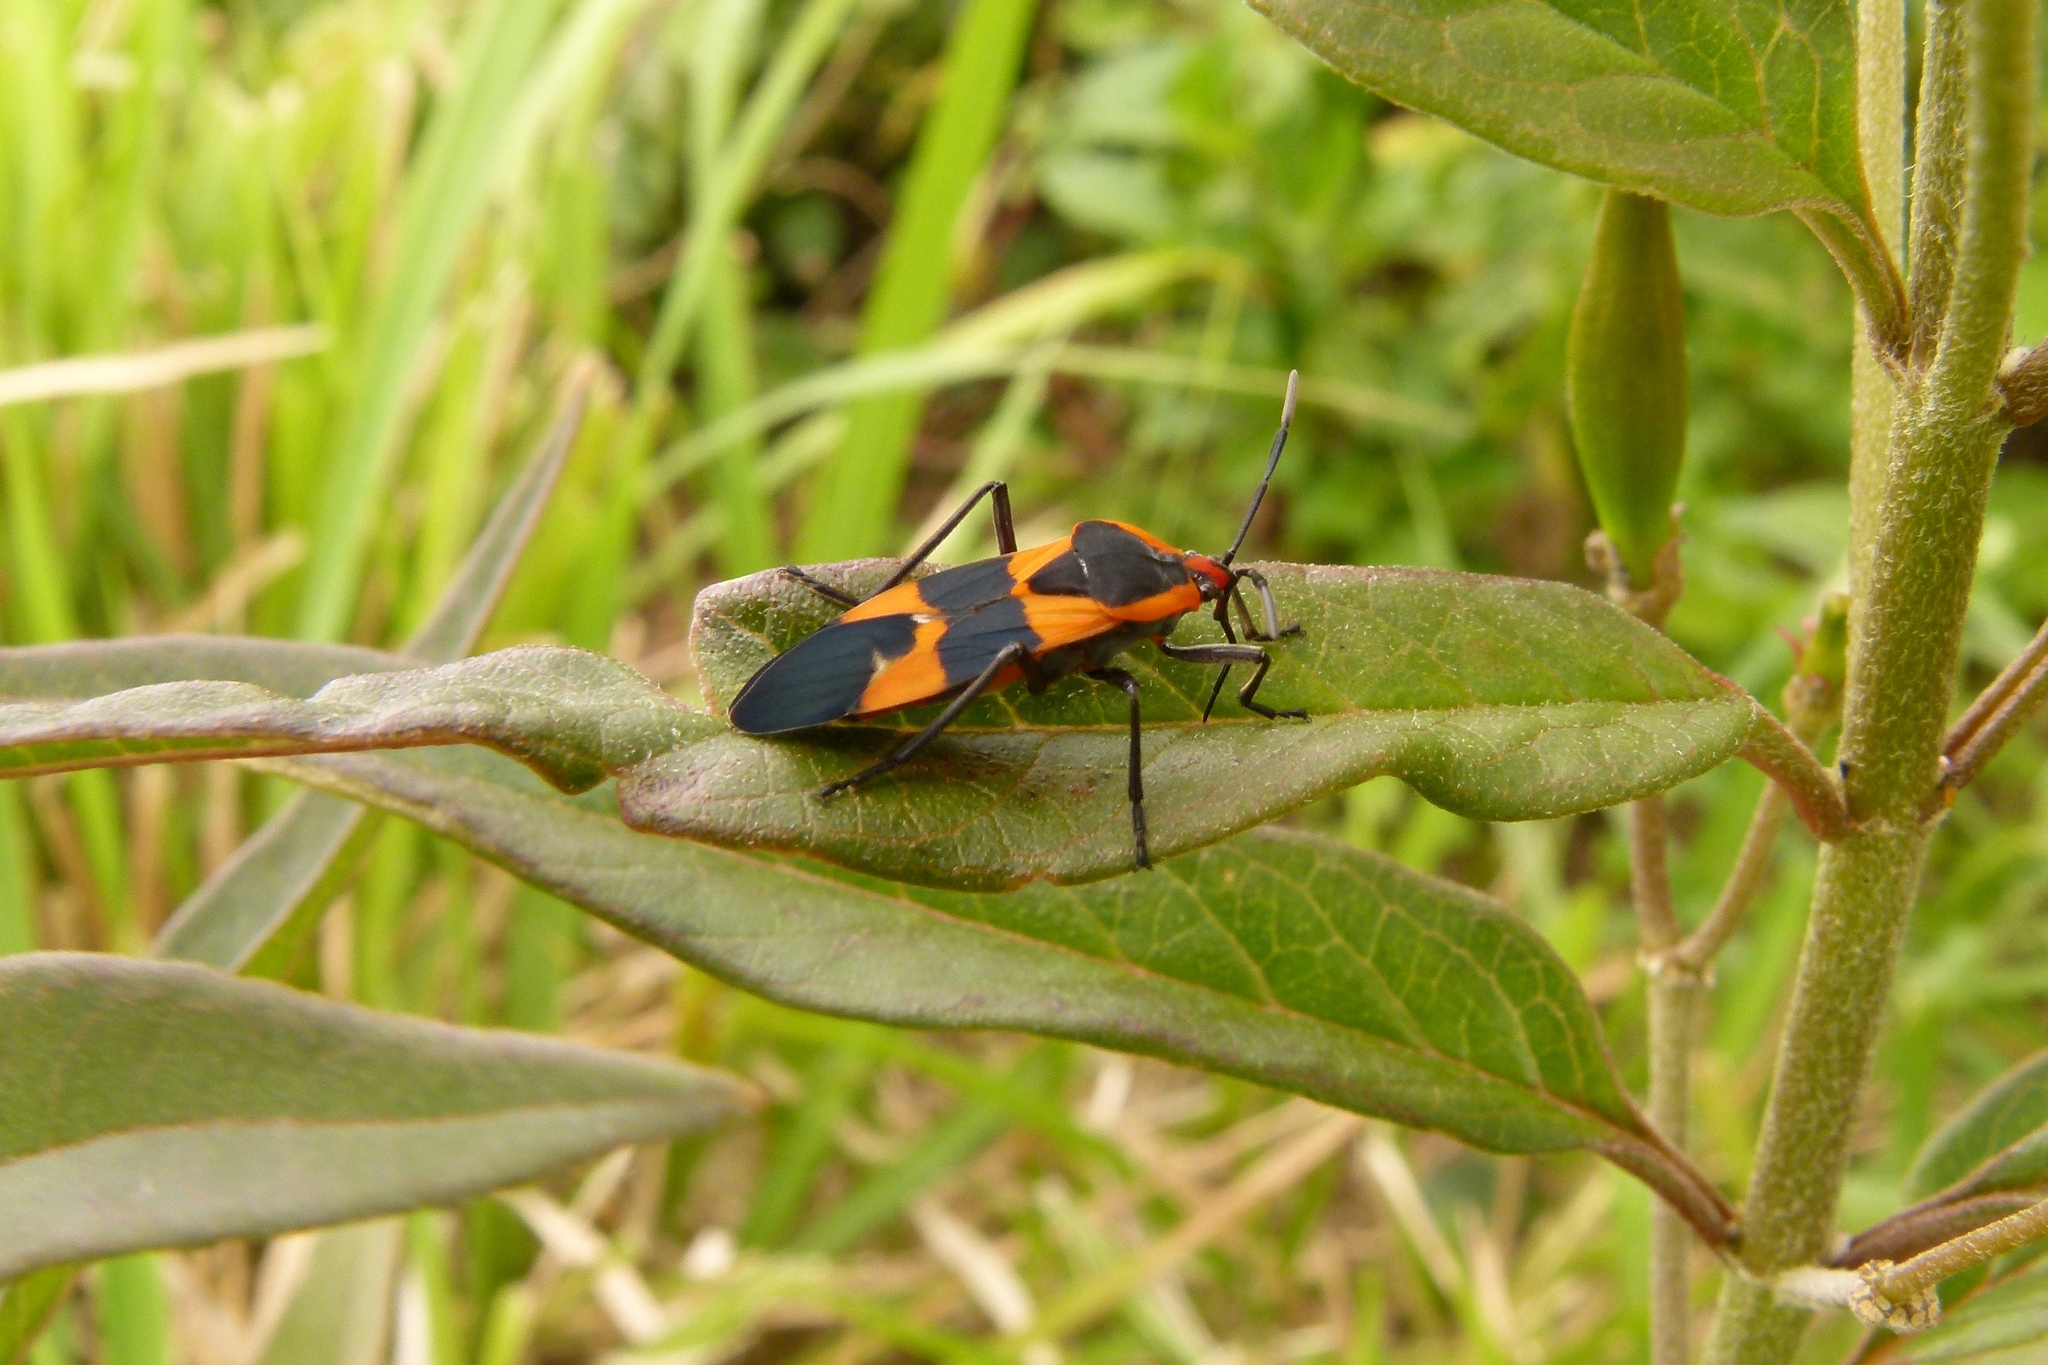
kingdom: Animalia
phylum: Arthropoda
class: Insecta
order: Hemiptera
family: Lygaeidae
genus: Oncopeltus
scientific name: Oncopeltus fasciatus
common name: Large milkweed bug
